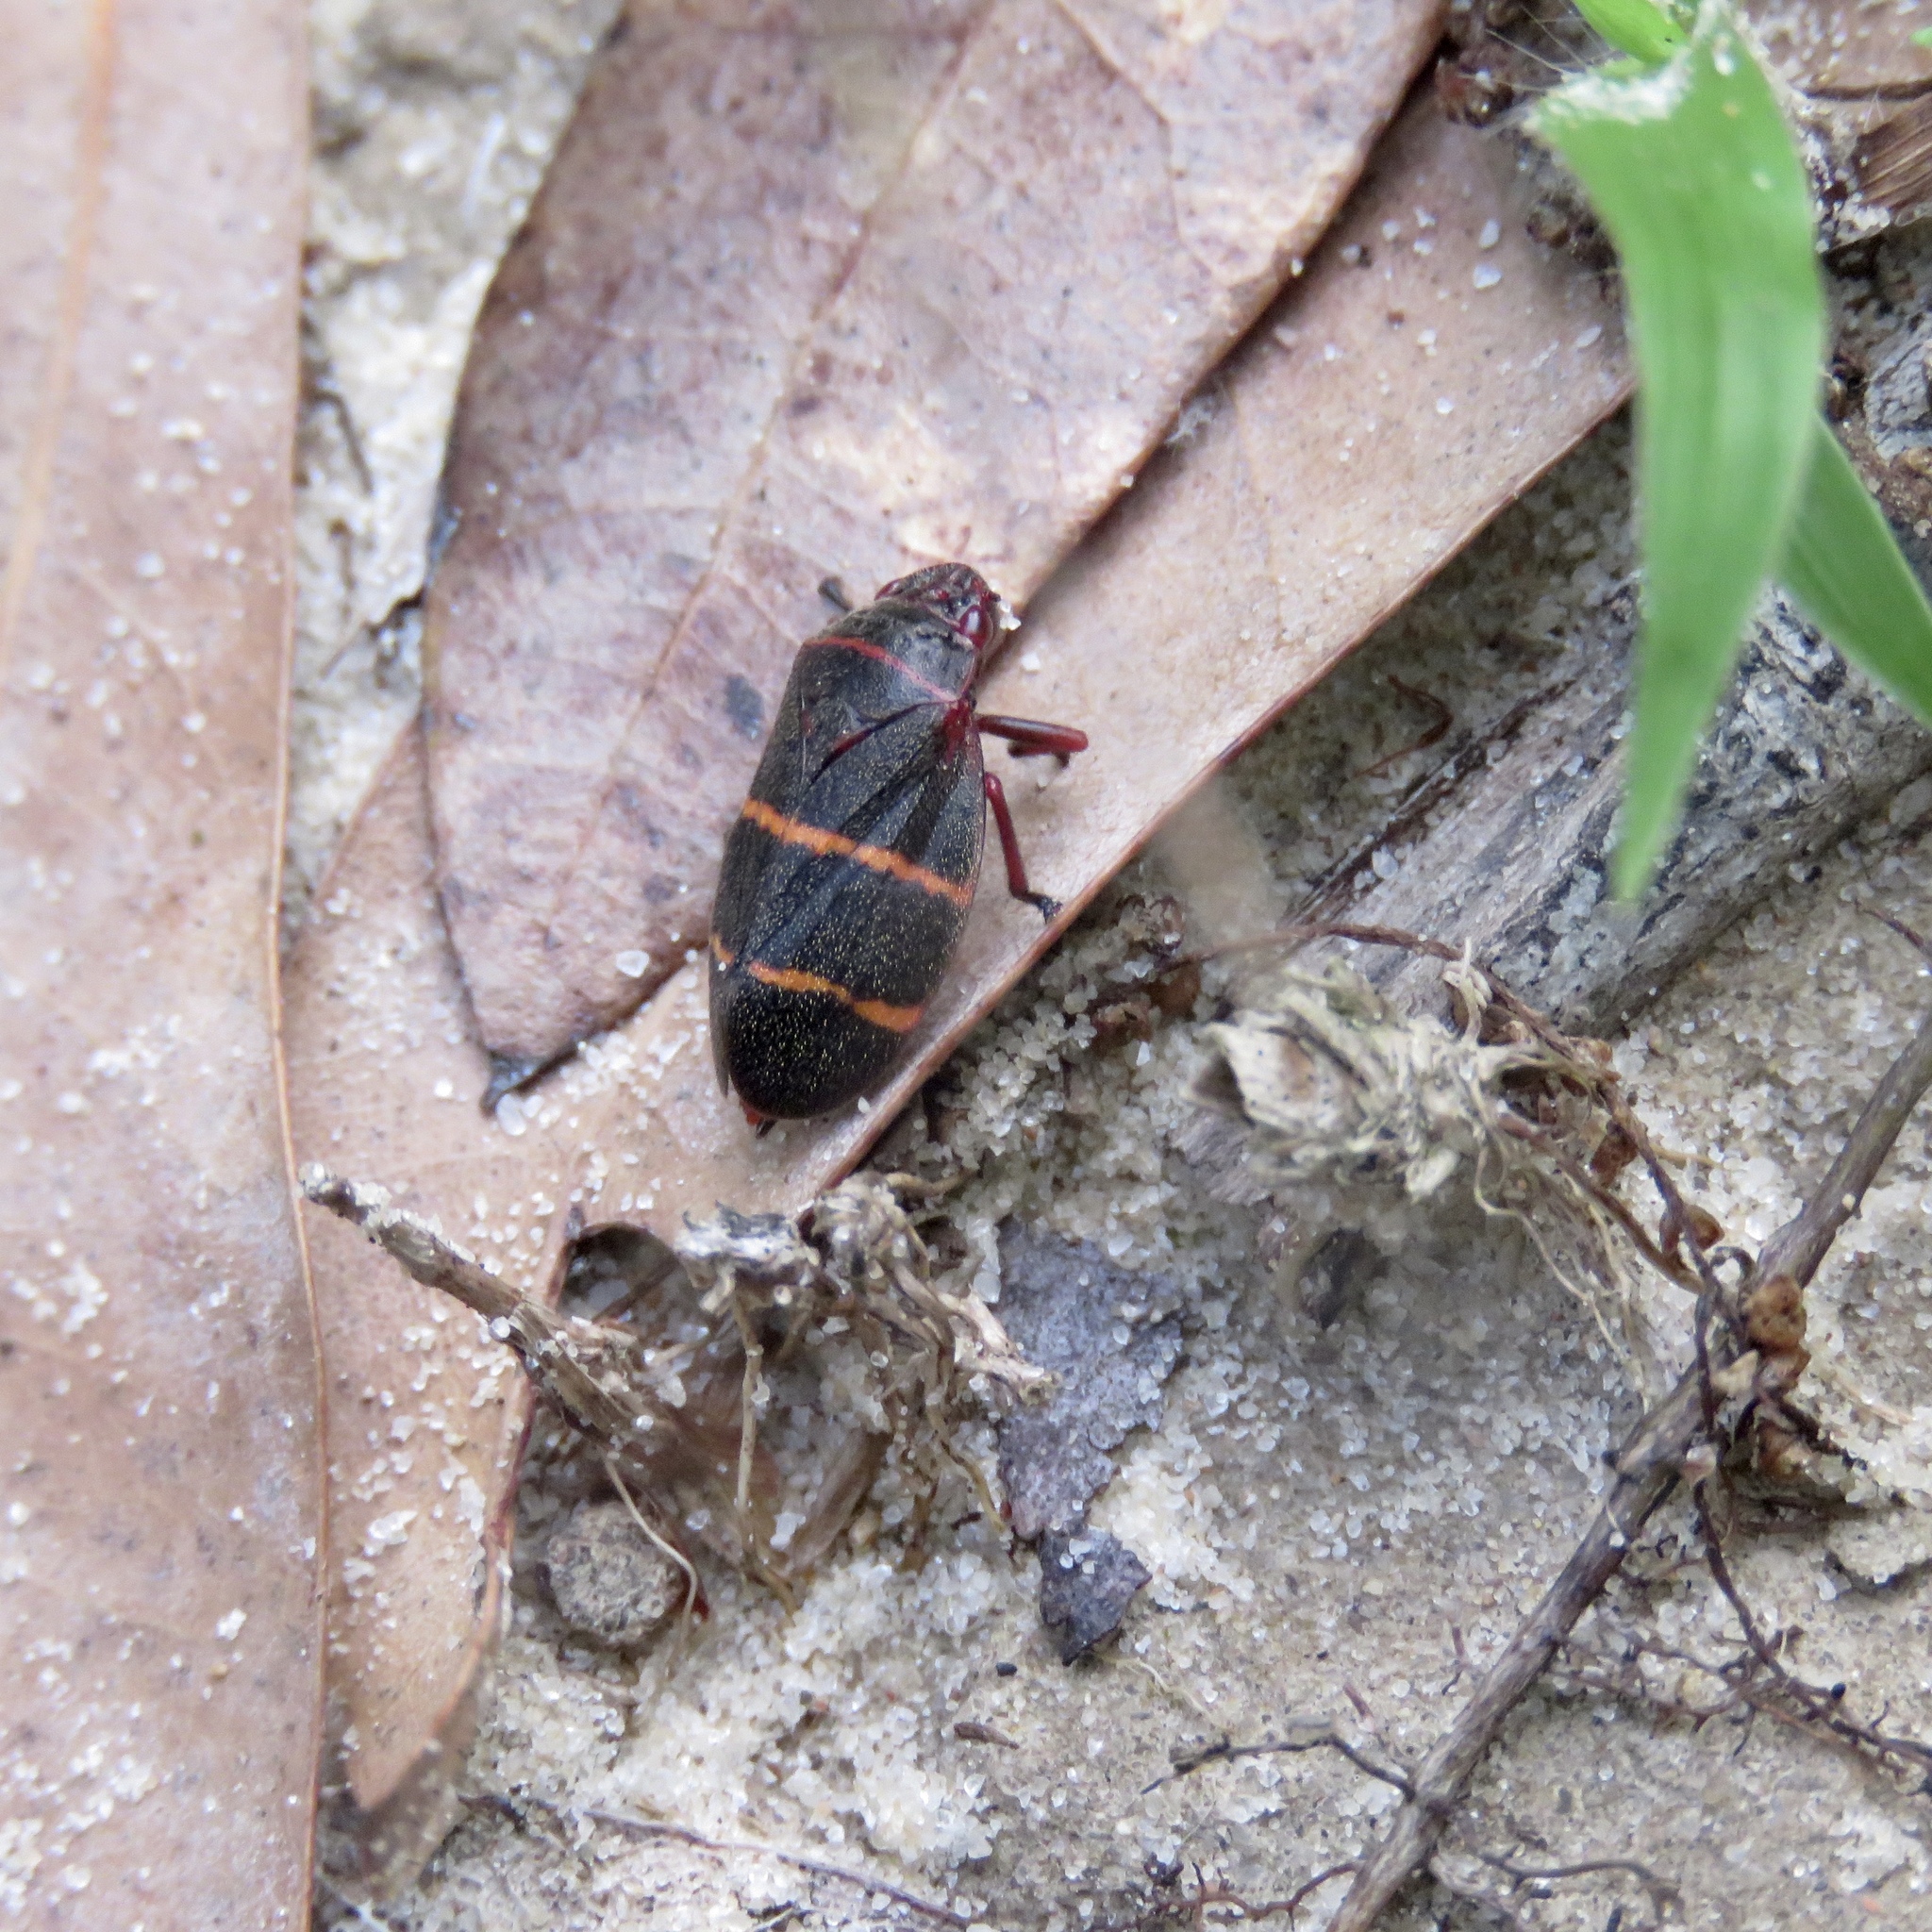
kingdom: Animalia
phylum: Arthropoda
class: Insecta
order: Hemiptera
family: Cercopidae
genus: Prosapia
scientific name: Prosapia bicincta
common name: Twolined spittlebug
